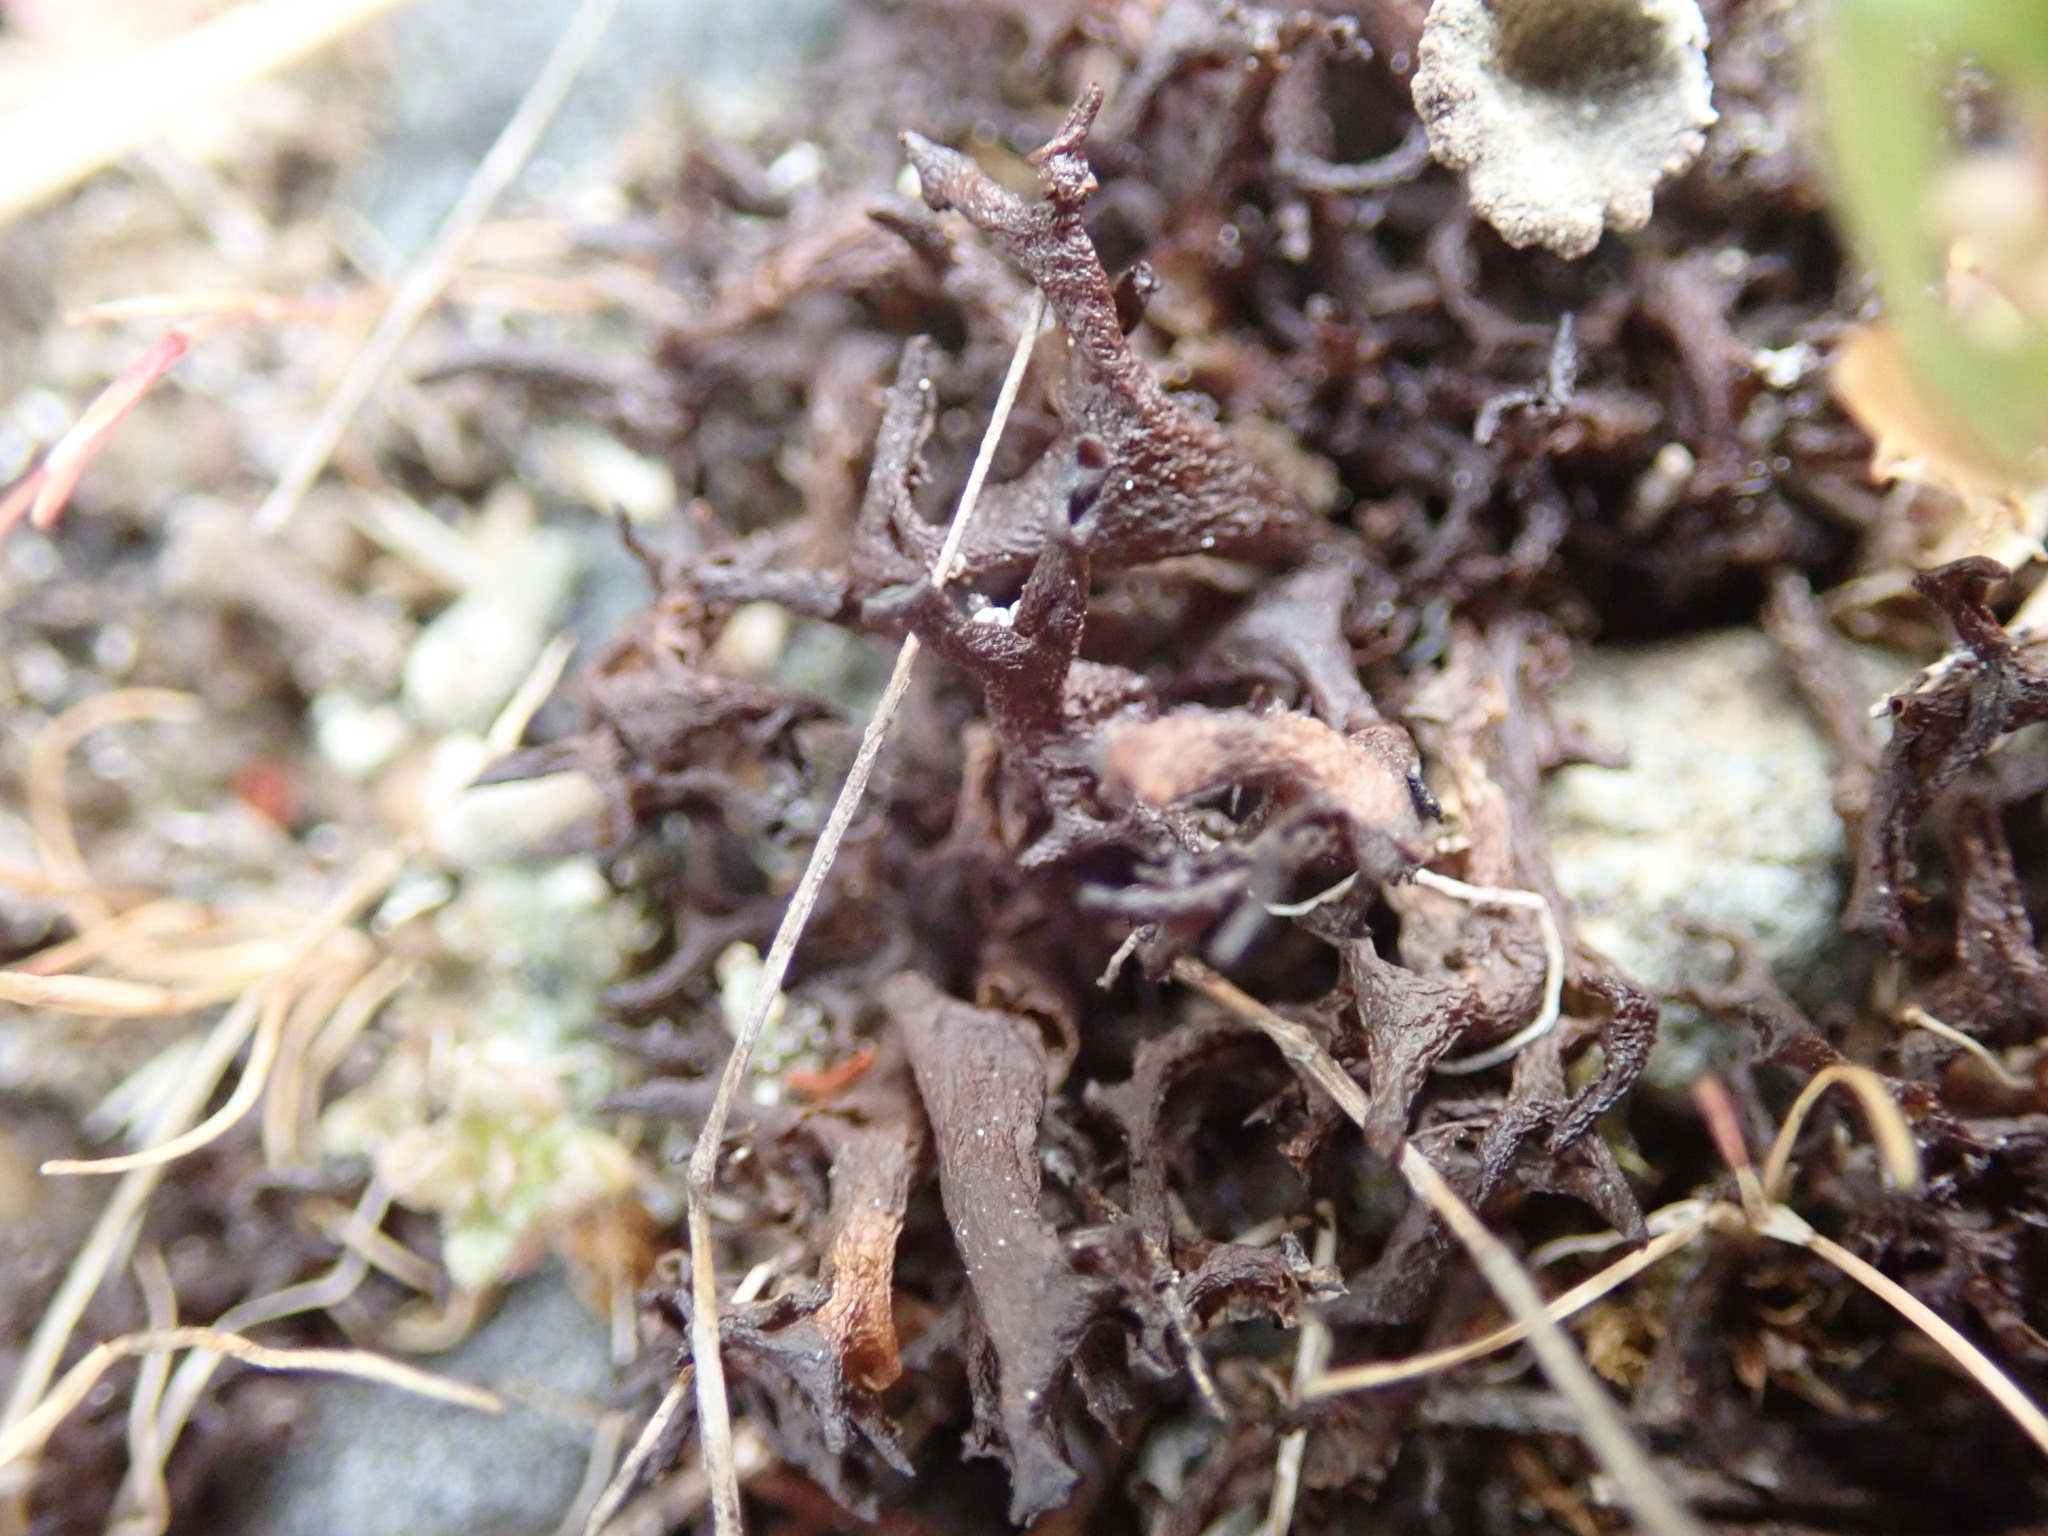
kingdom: Fungi
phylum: Ascomycota
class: Lecanoromycetes
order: Peltigerales
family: Collemataceae
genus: Scytinium
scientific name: Scytinium palmatum
